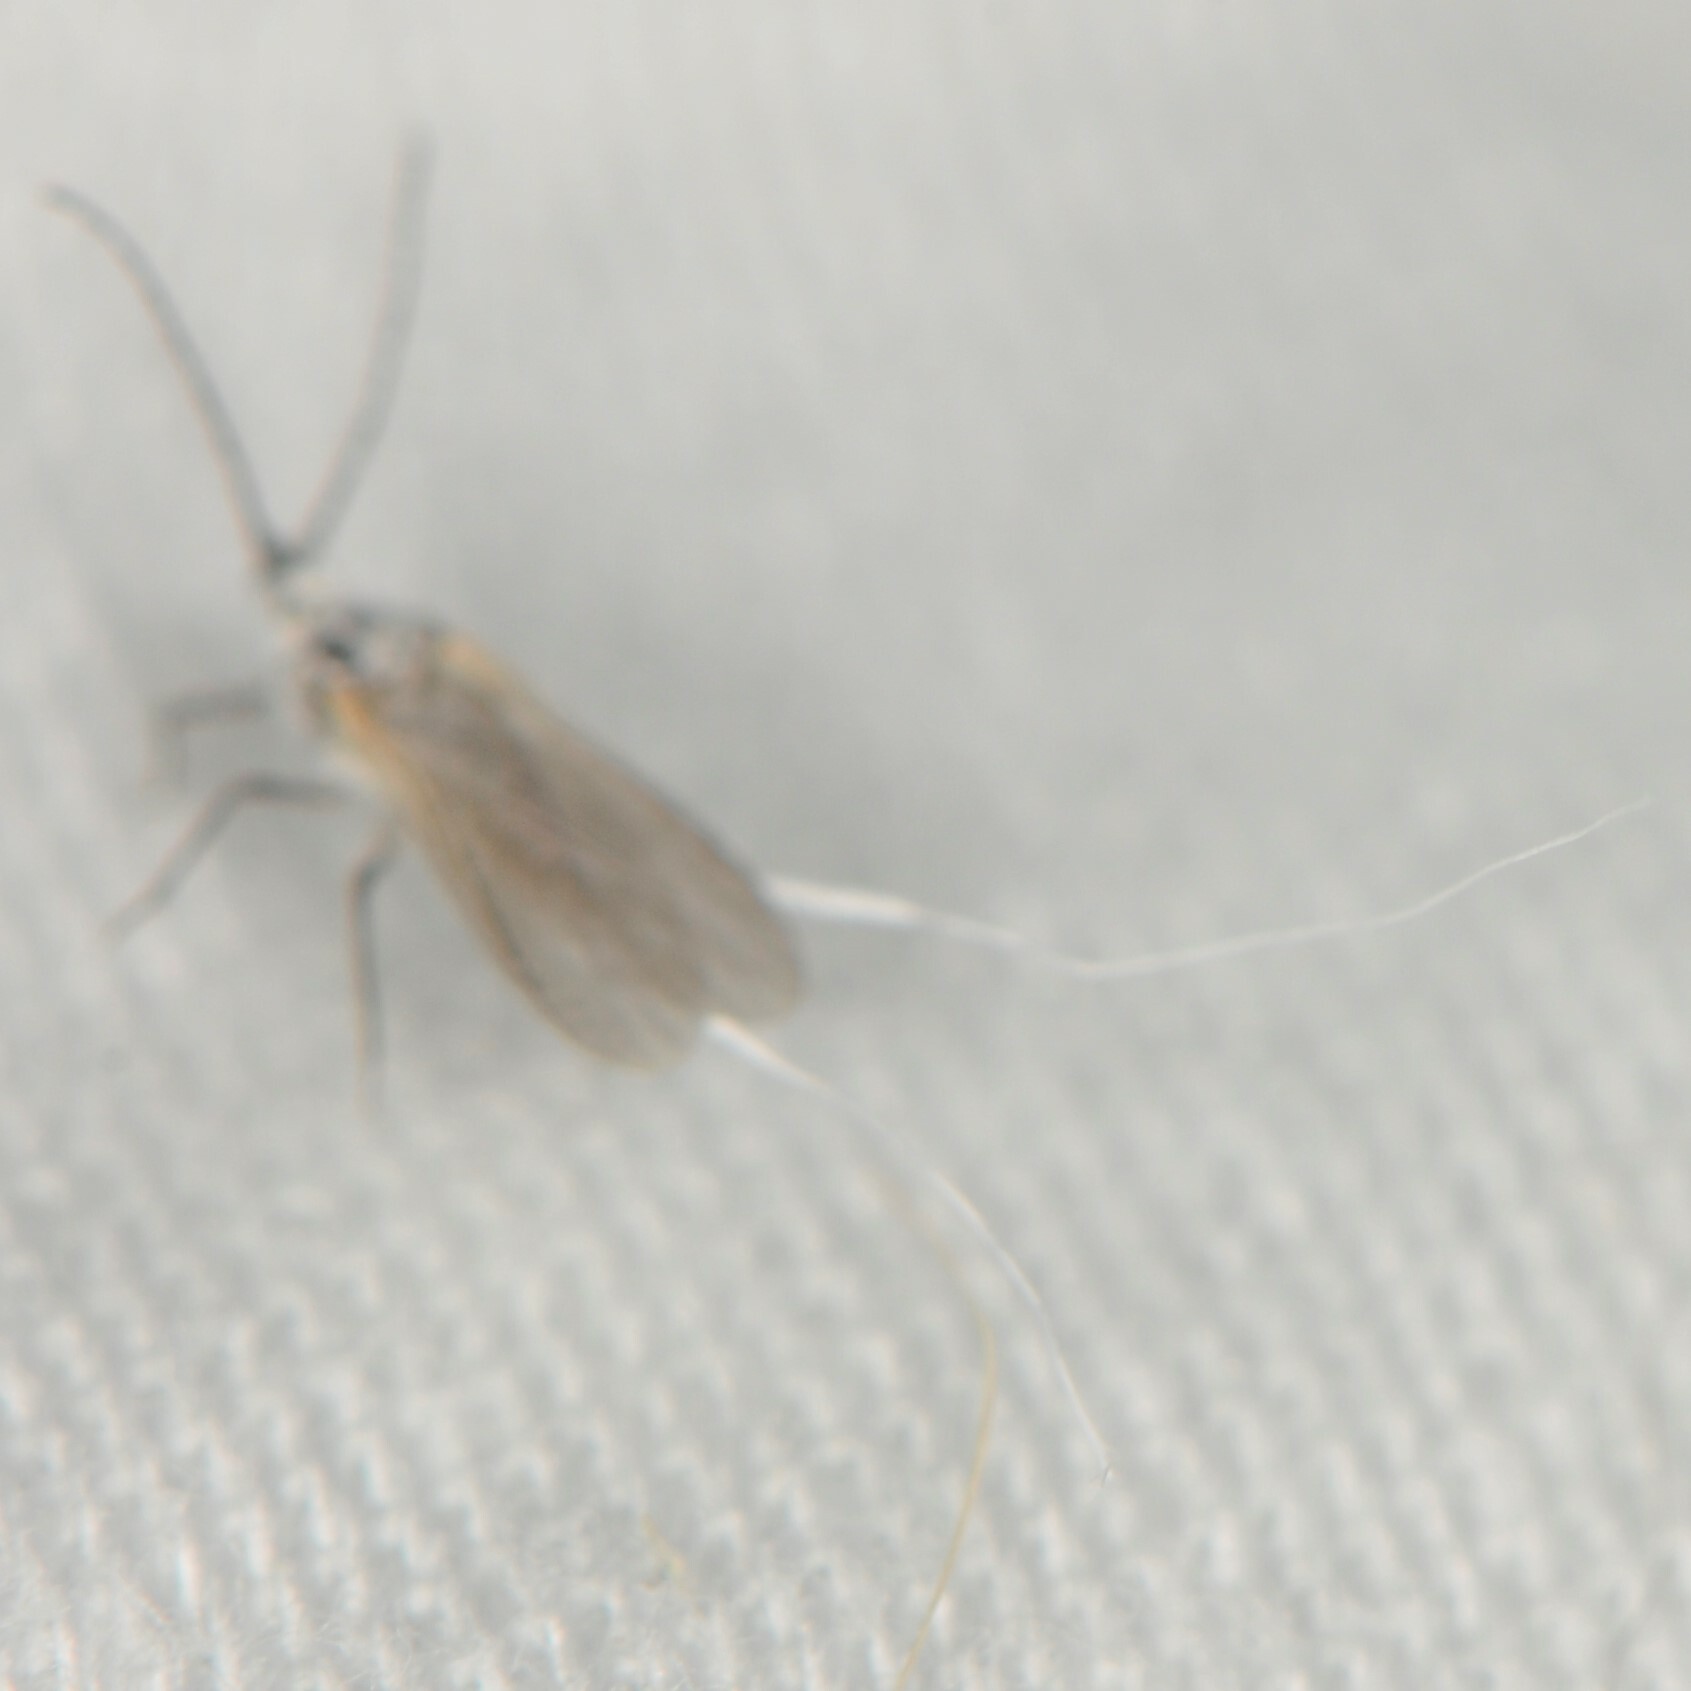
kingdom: Animalia
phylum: Arthropoda
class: Insecta
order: Hemiptera
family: Pseudococcidae
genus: Puto
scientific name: Puto
